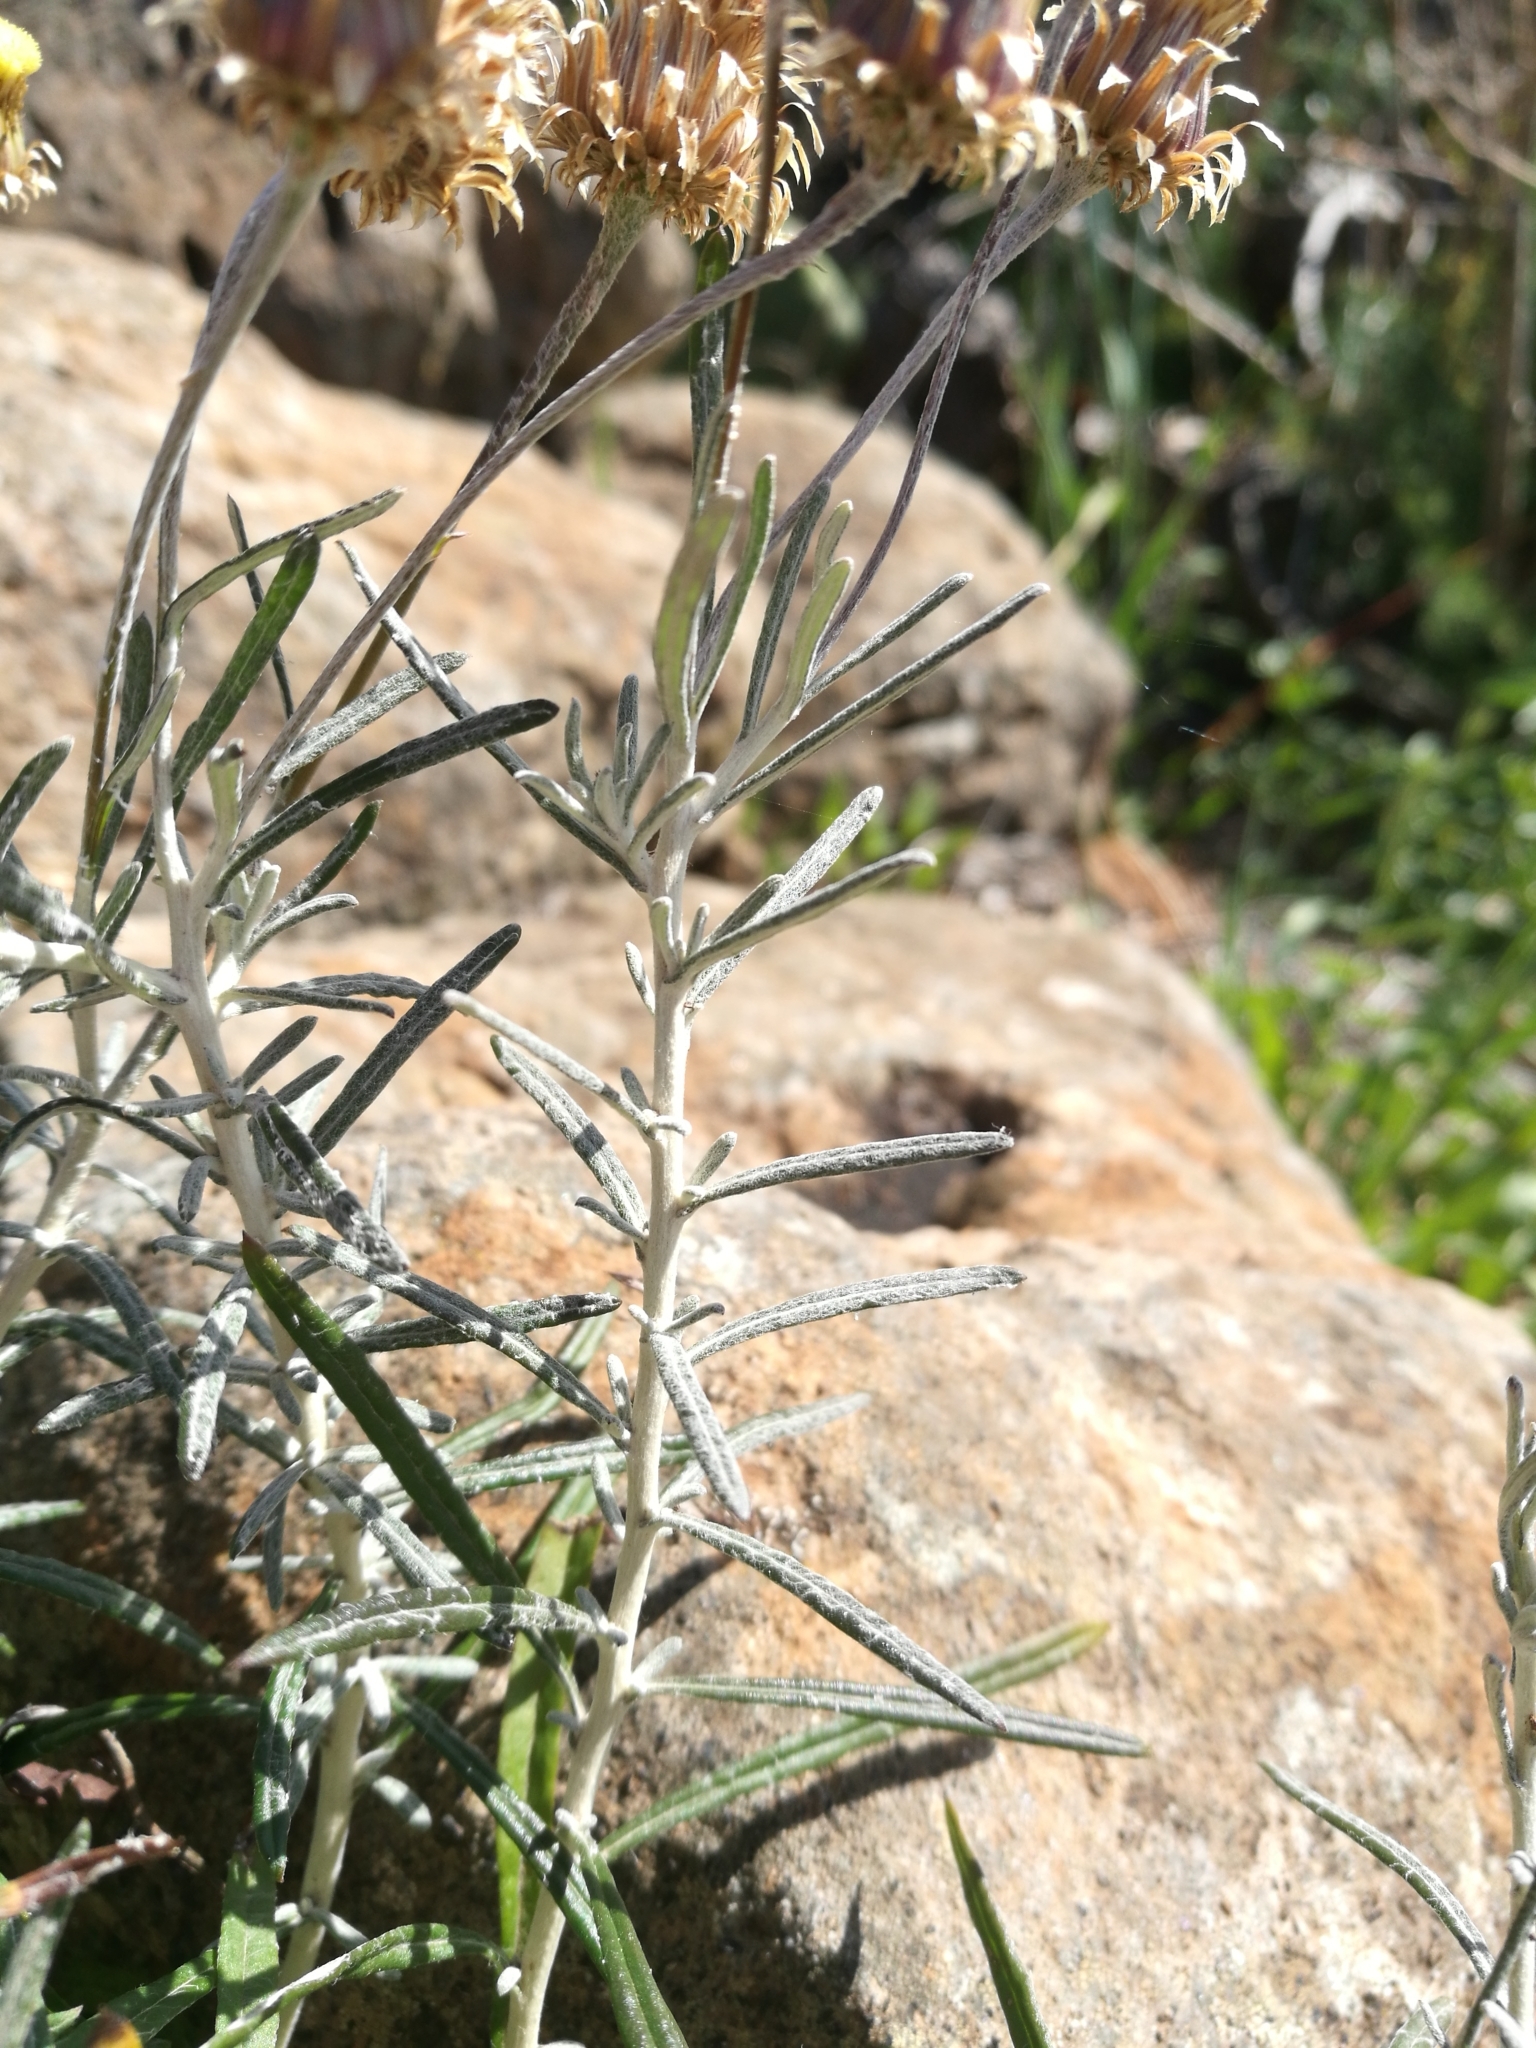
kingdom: Plantae
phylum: Tracheophyta
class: Magnoliopsida
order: Asterales
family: Asteraceae
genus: Phagnalon
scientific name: Phagnalon saxatile
